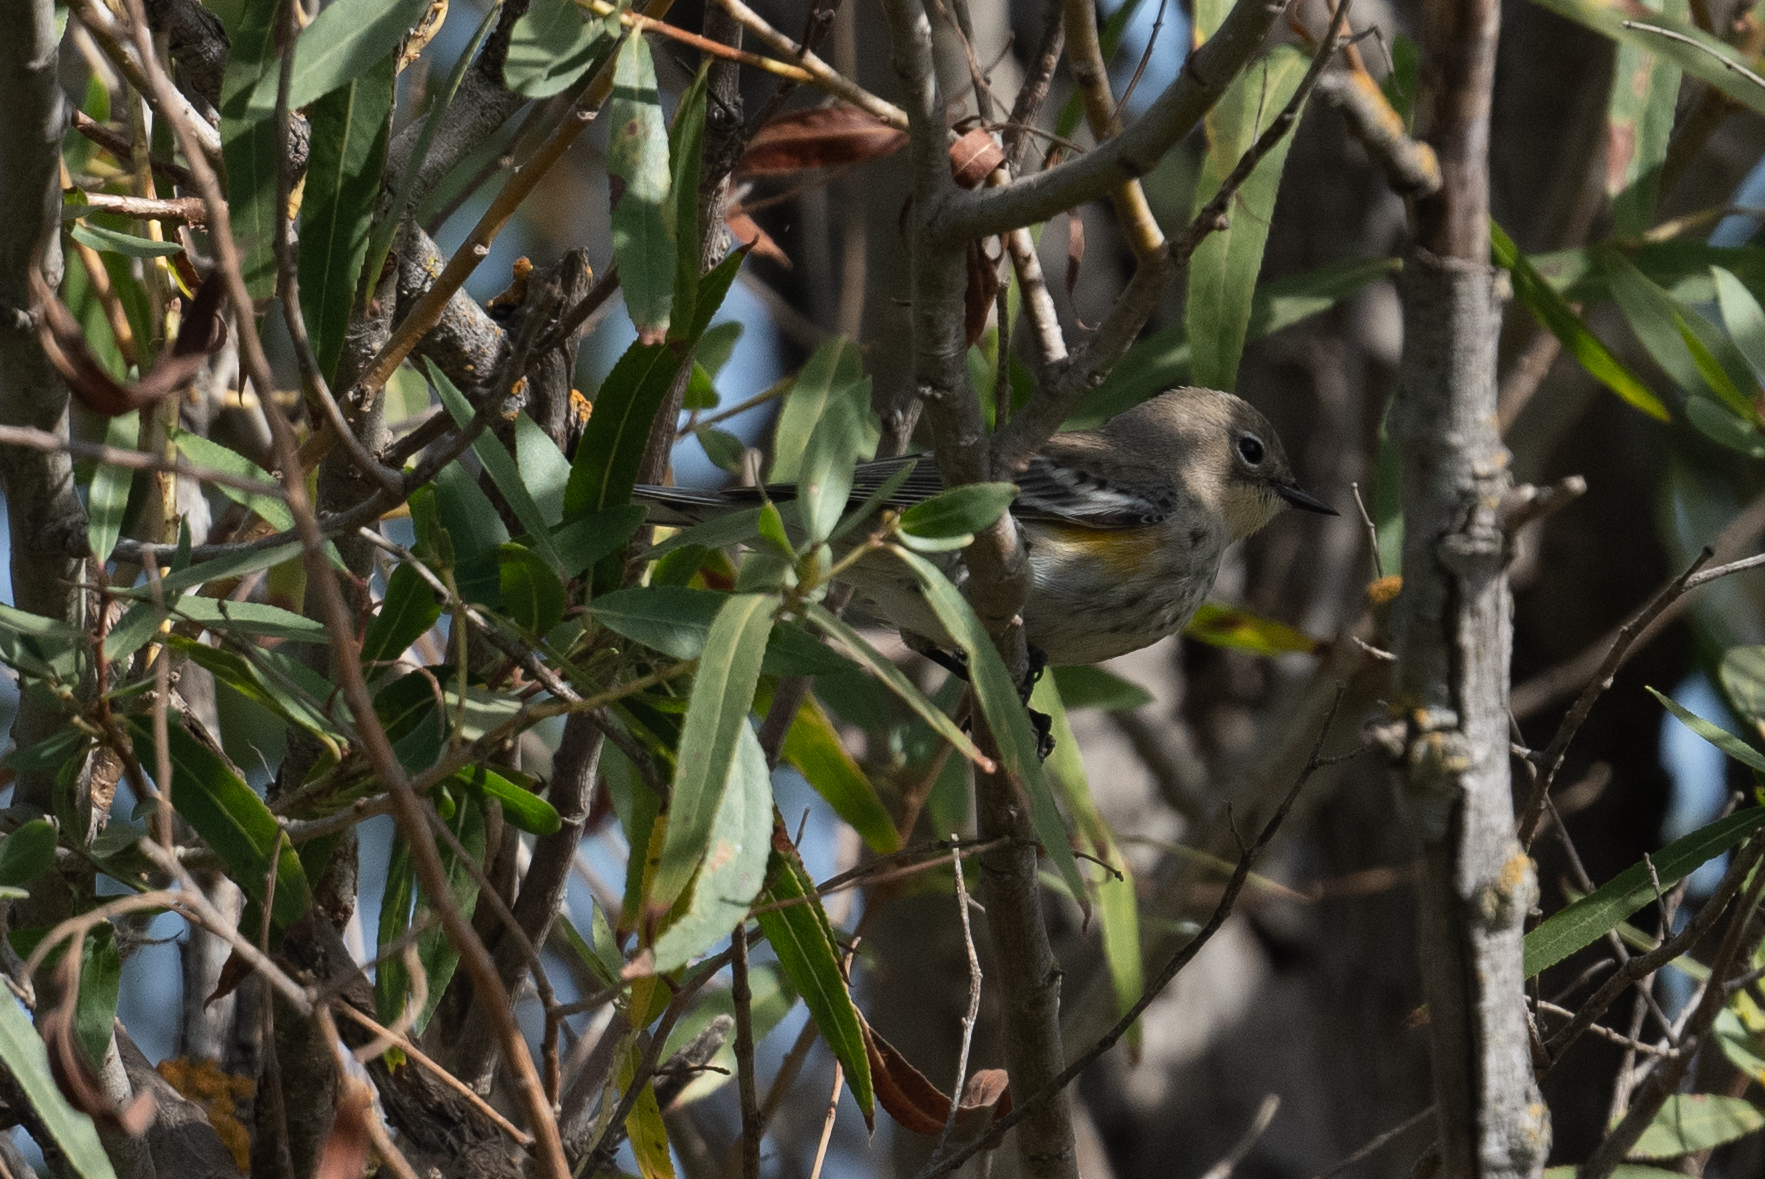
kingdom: Animalia
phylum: Chordata
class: Aves
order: Passeriformes
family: Parulidae
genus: Setophaga
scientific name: Setophaga coronata
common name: Myrtle warbler
